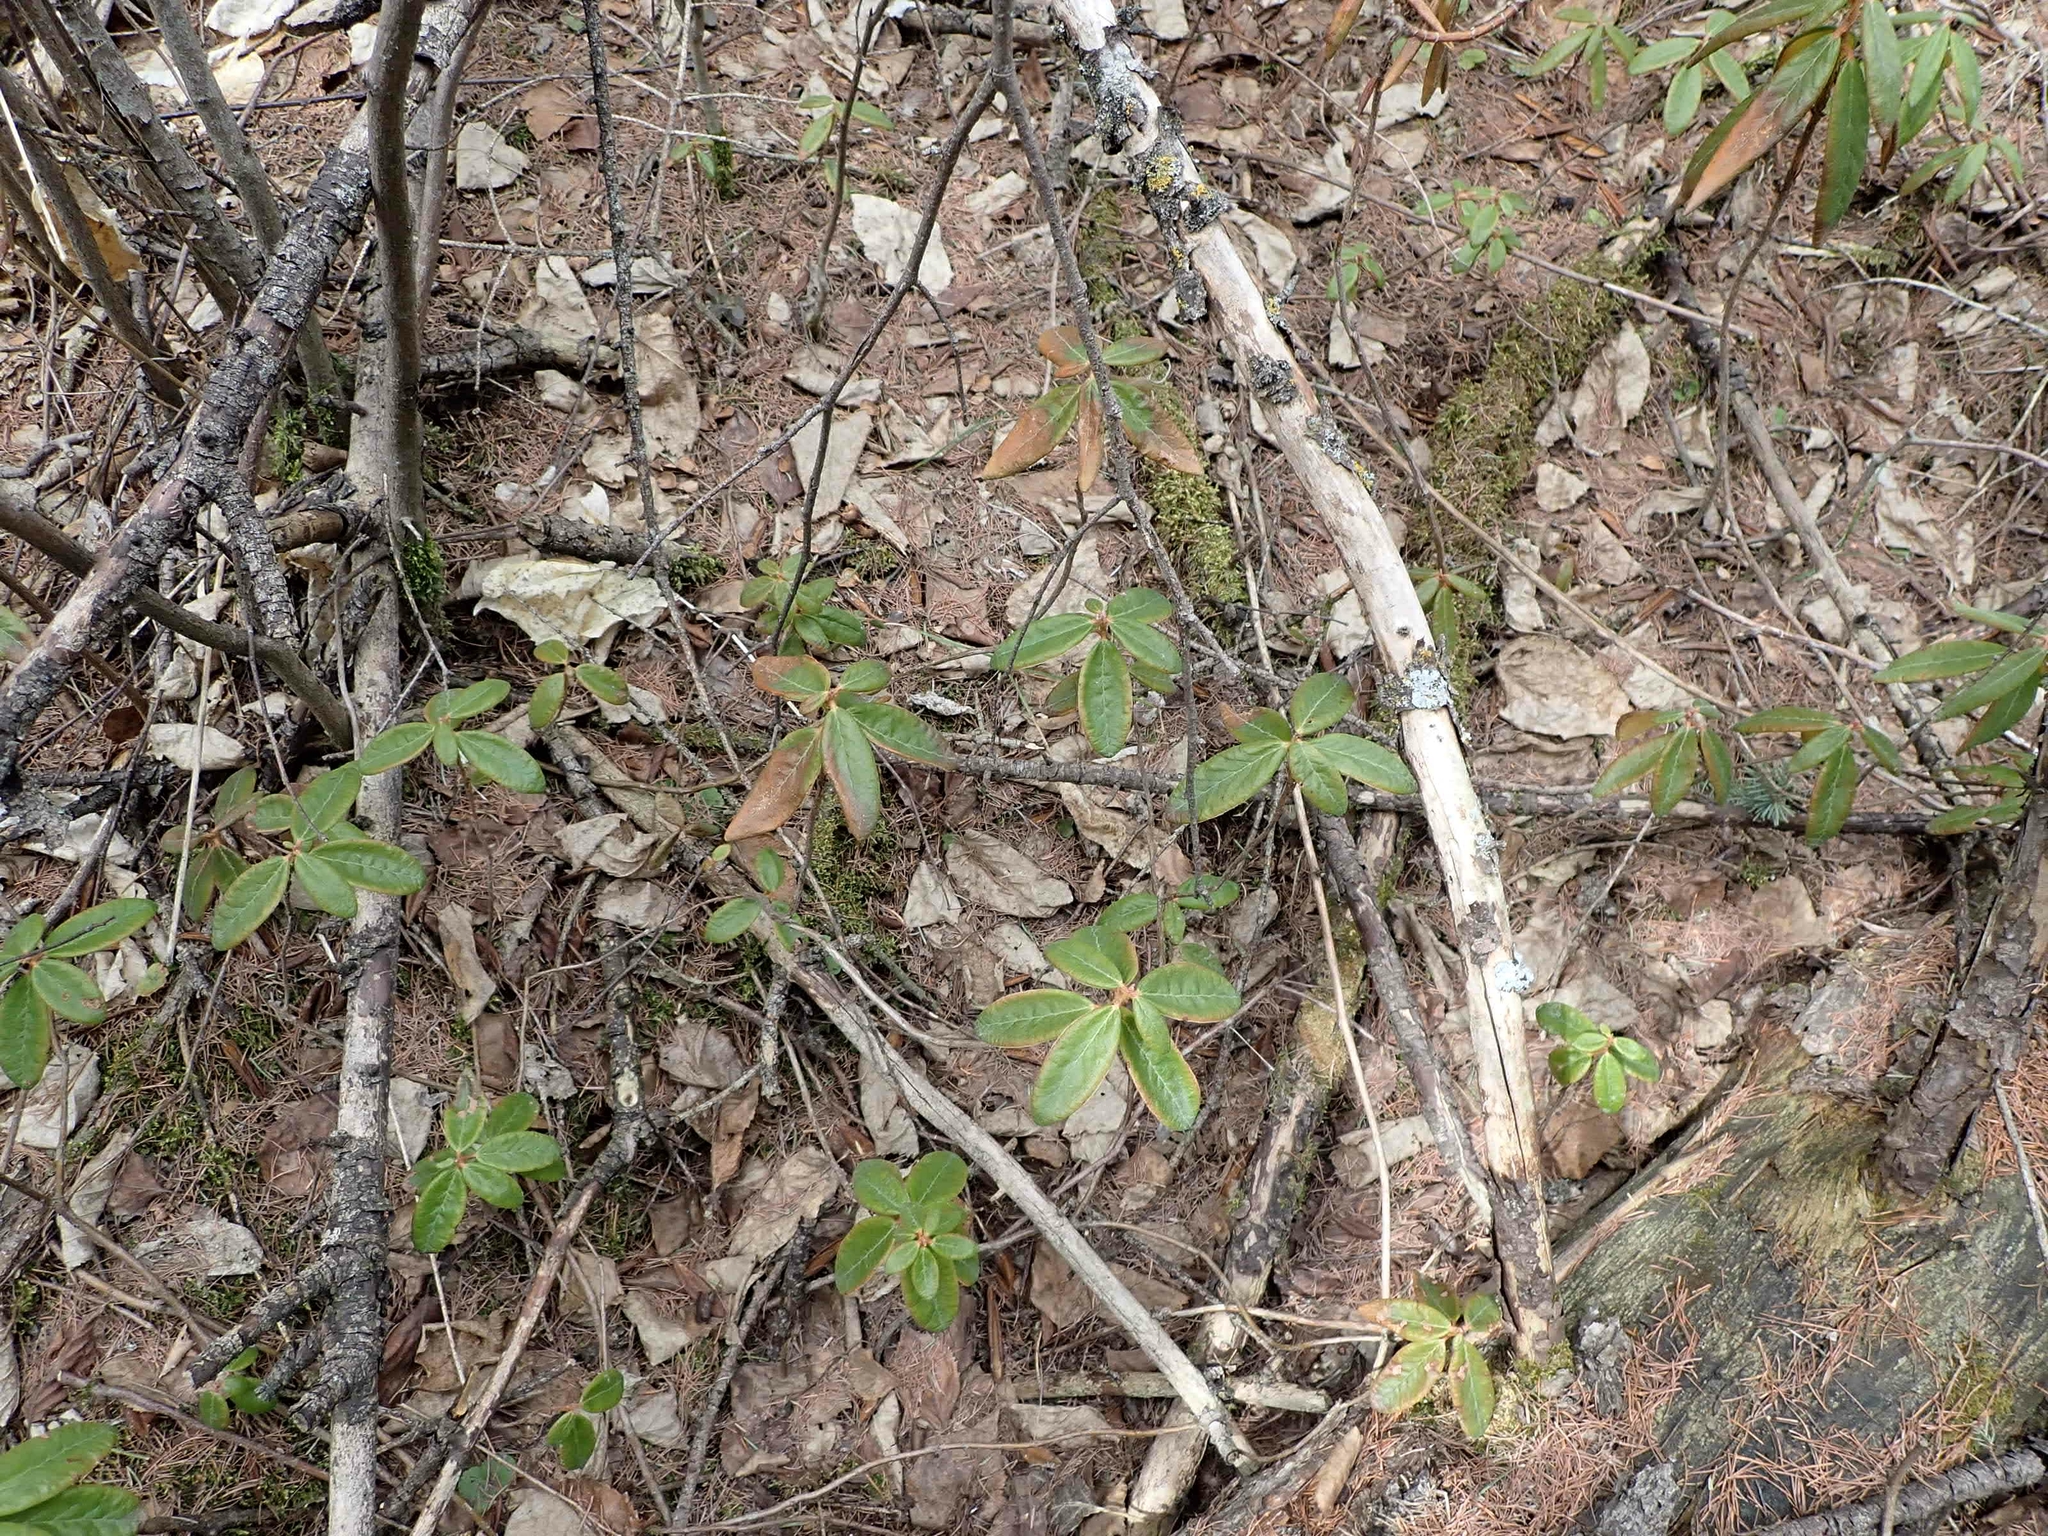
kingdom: Plantae
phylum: Tracheophyta
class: Magnoliopsida
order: Ericales
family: Ericaceae
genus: Rhododendron
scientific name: Rhododendron groenlandicum
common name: Bog labrador tea
